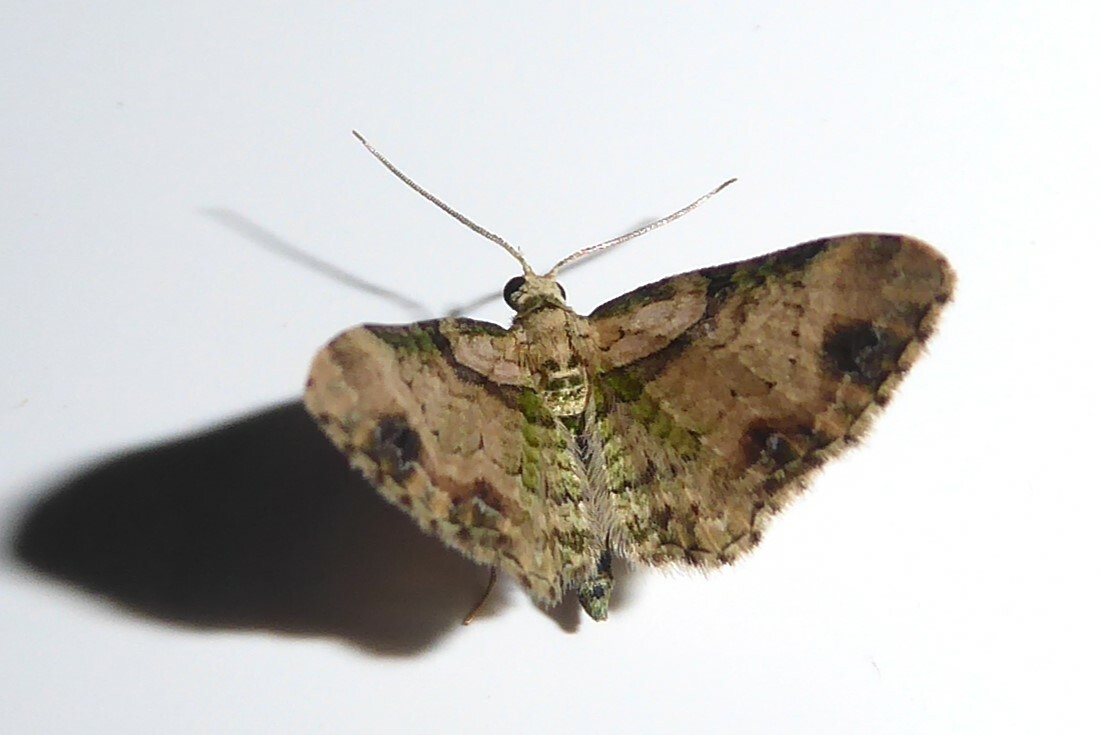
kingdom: Animalia
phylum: Arthropoda
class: Insecta
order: Lepidoptera
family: Geometridae
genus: Chloroclystis
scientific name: Chloroclystis
